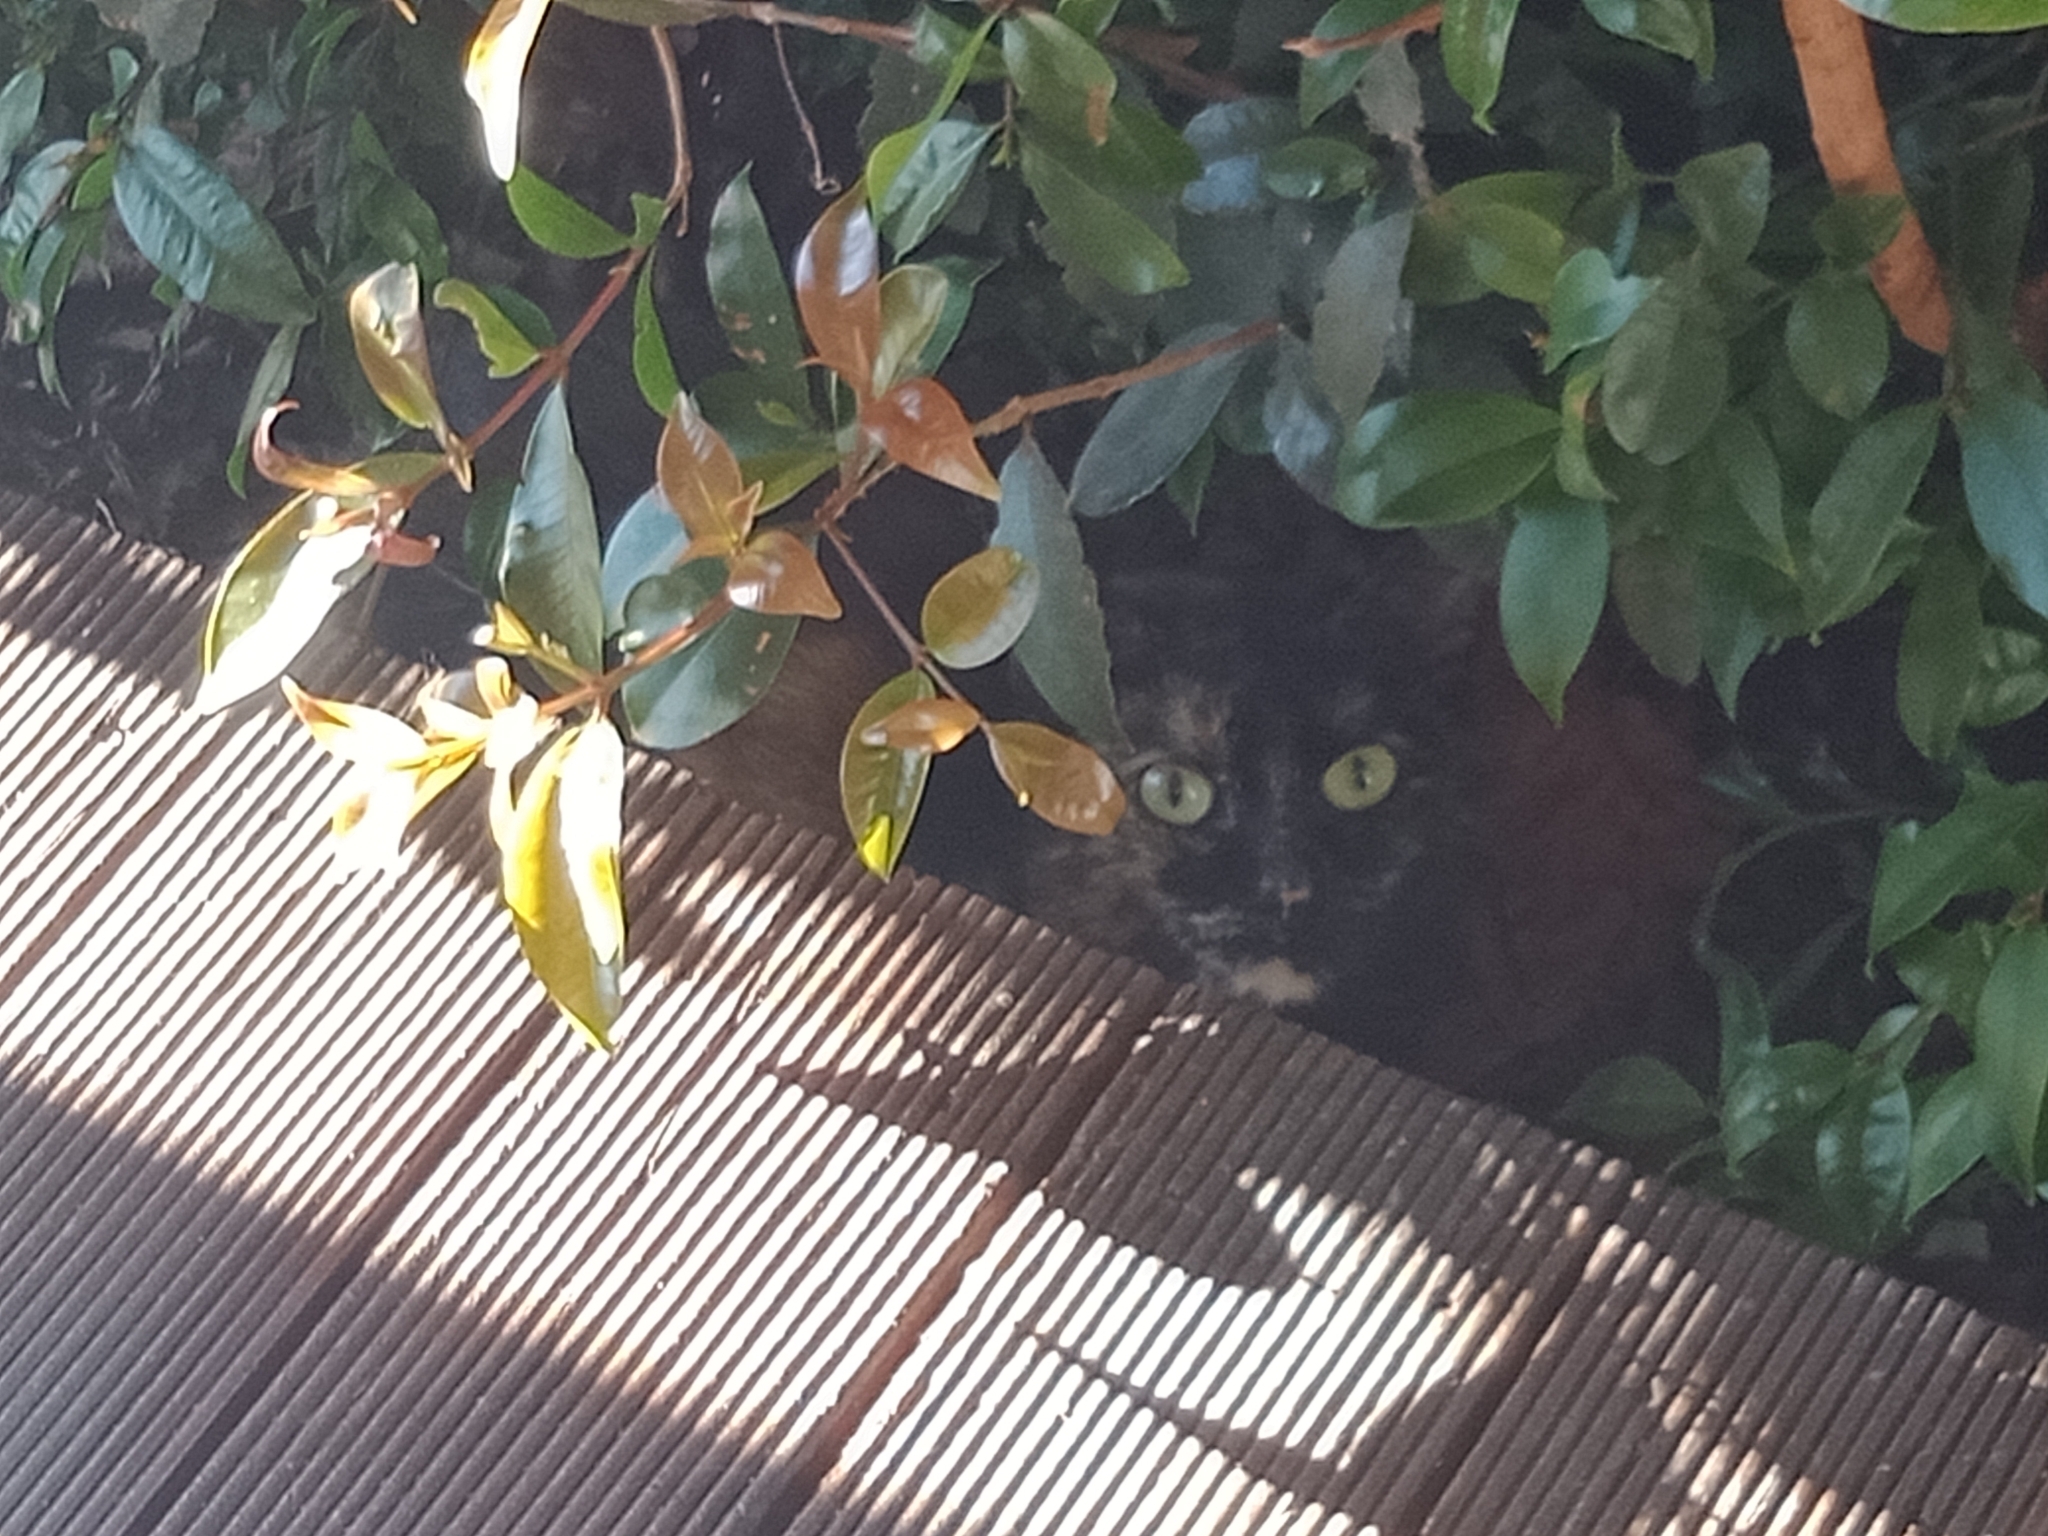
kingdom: Animalia
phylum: Chordata
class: Mammalia
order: Carnivora
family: Felidae
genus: Felis
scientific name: Felis catus
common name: Domestic cat
